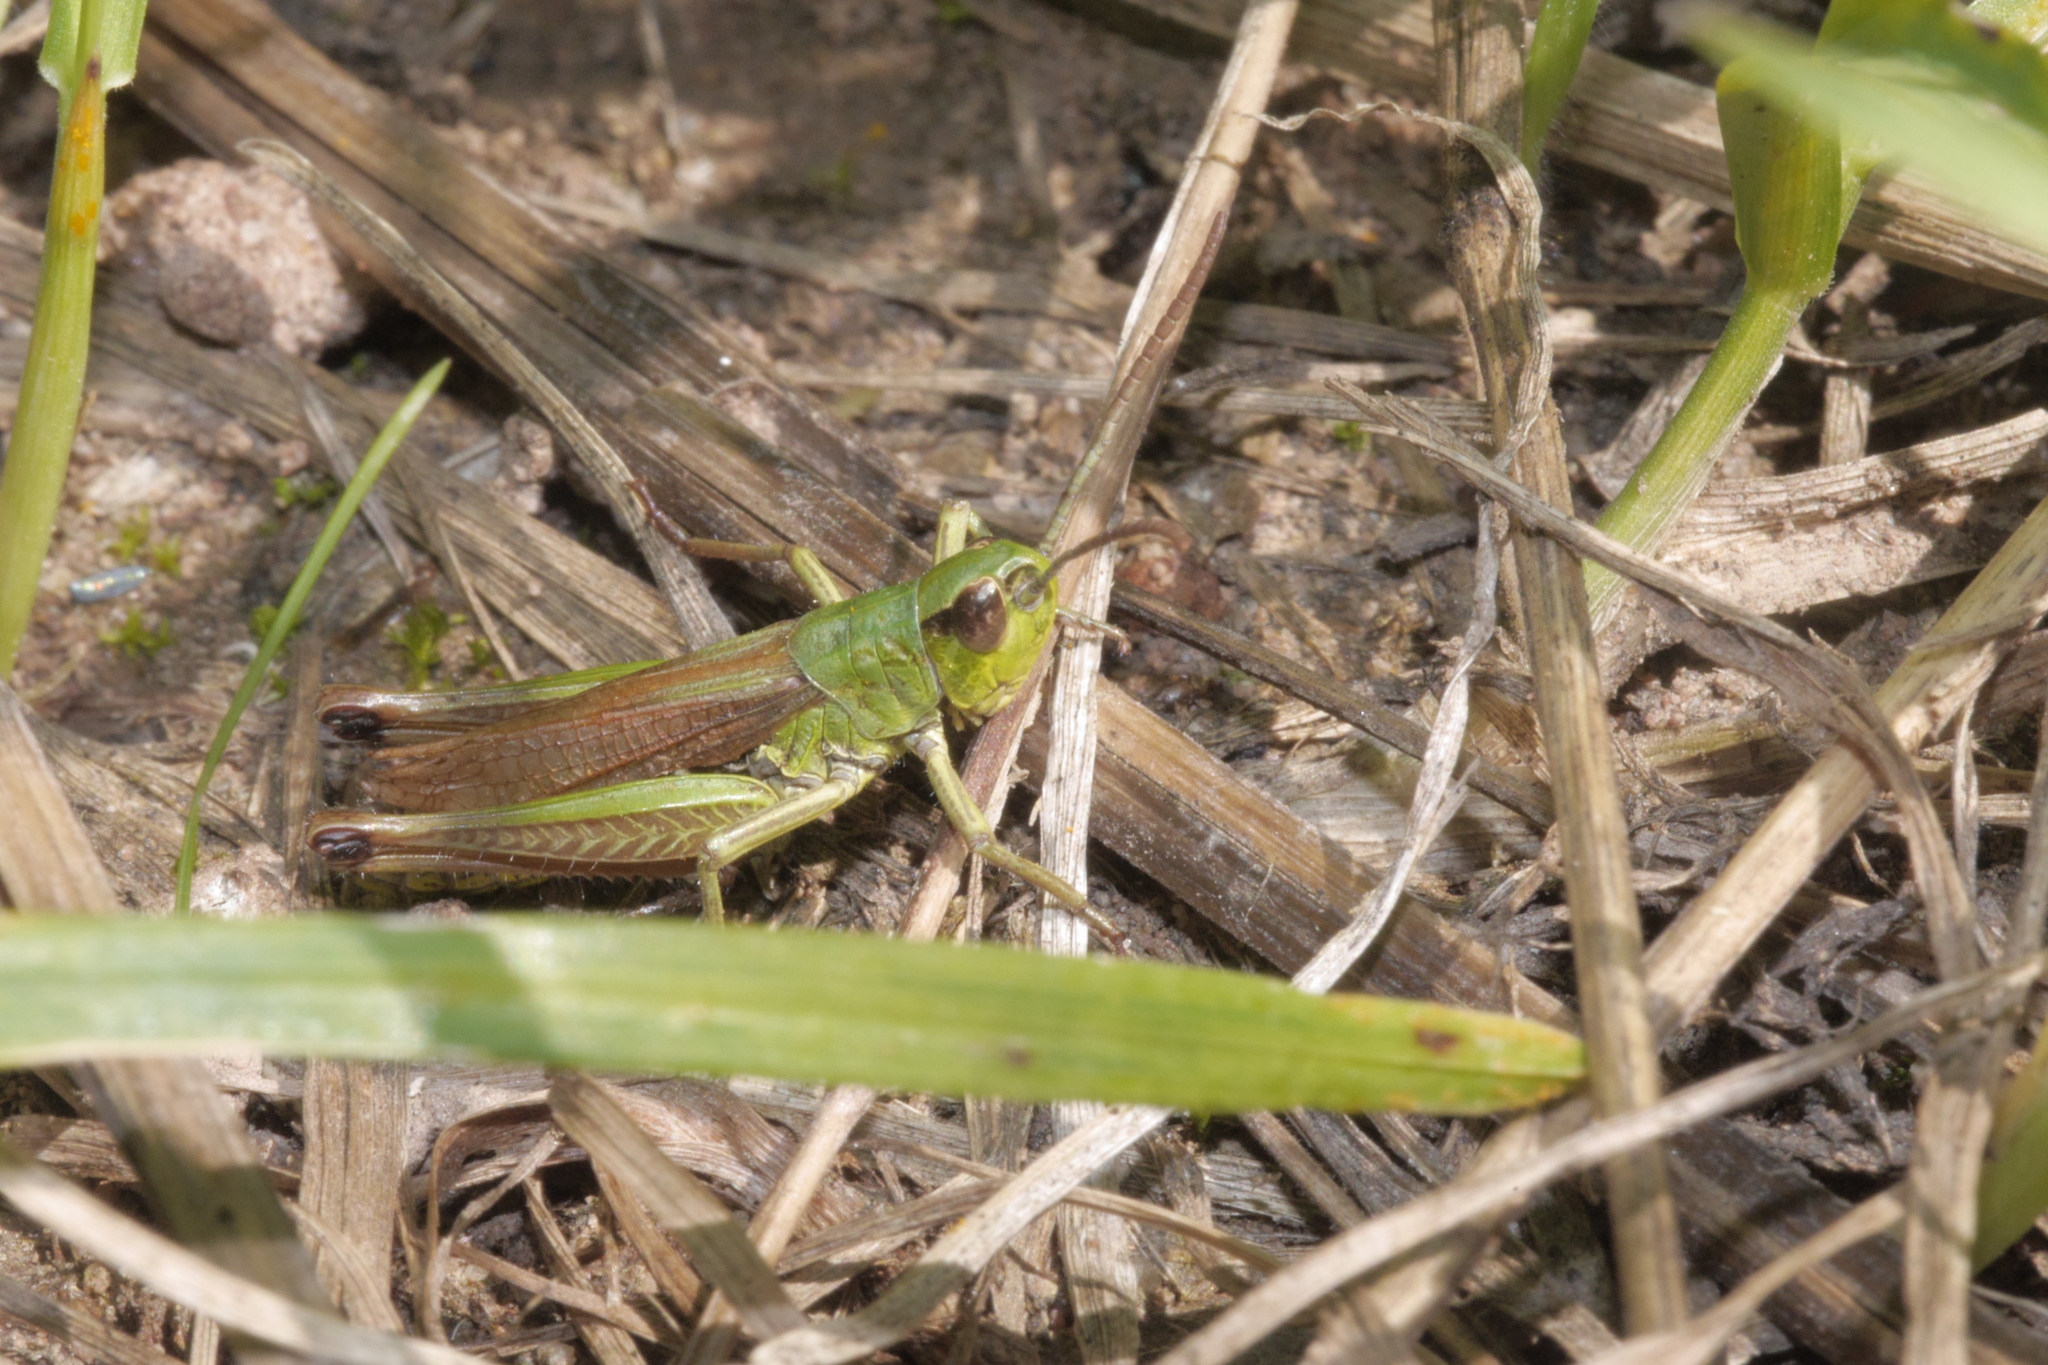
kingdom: Animalia
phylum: Arthropoda
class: Insecta
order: Orthoptera
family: Acrididae
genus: Pseudochorthippus
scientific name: Pseudochorthippus parallelus
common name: Meadow grasshopper
